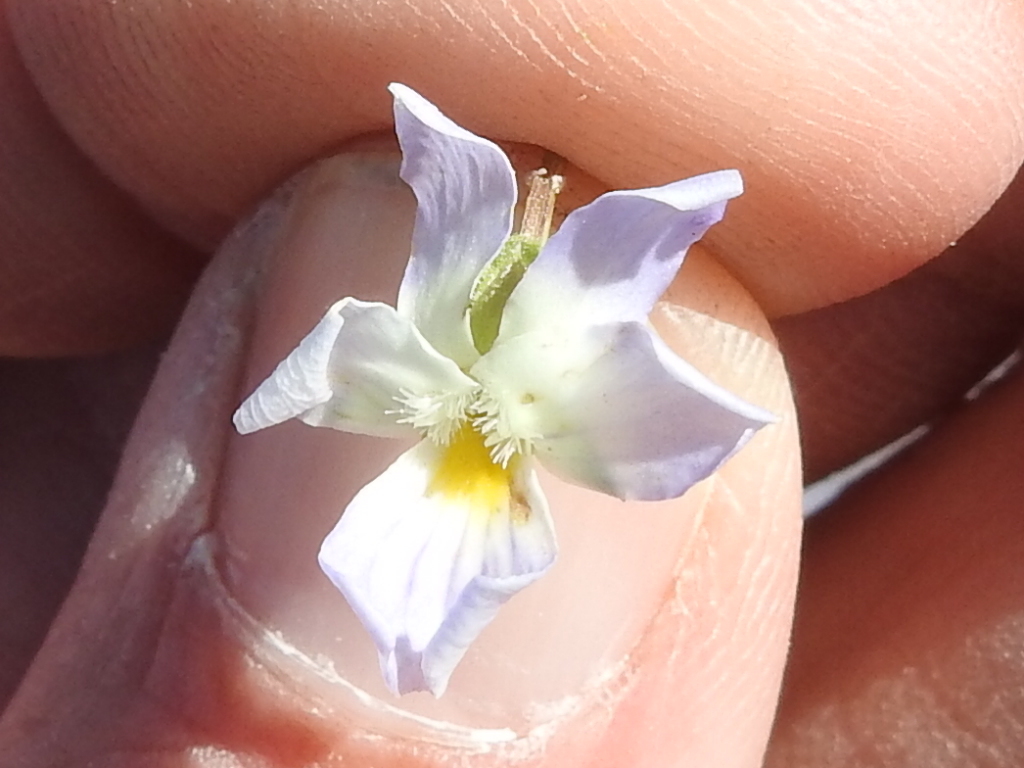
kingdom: Plantae
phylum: Tracheophyta
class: Magnoliopsida
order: Malpighiales
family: Violaceae
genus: Viola
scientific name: Viola rafinesquei
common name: American field pansy
